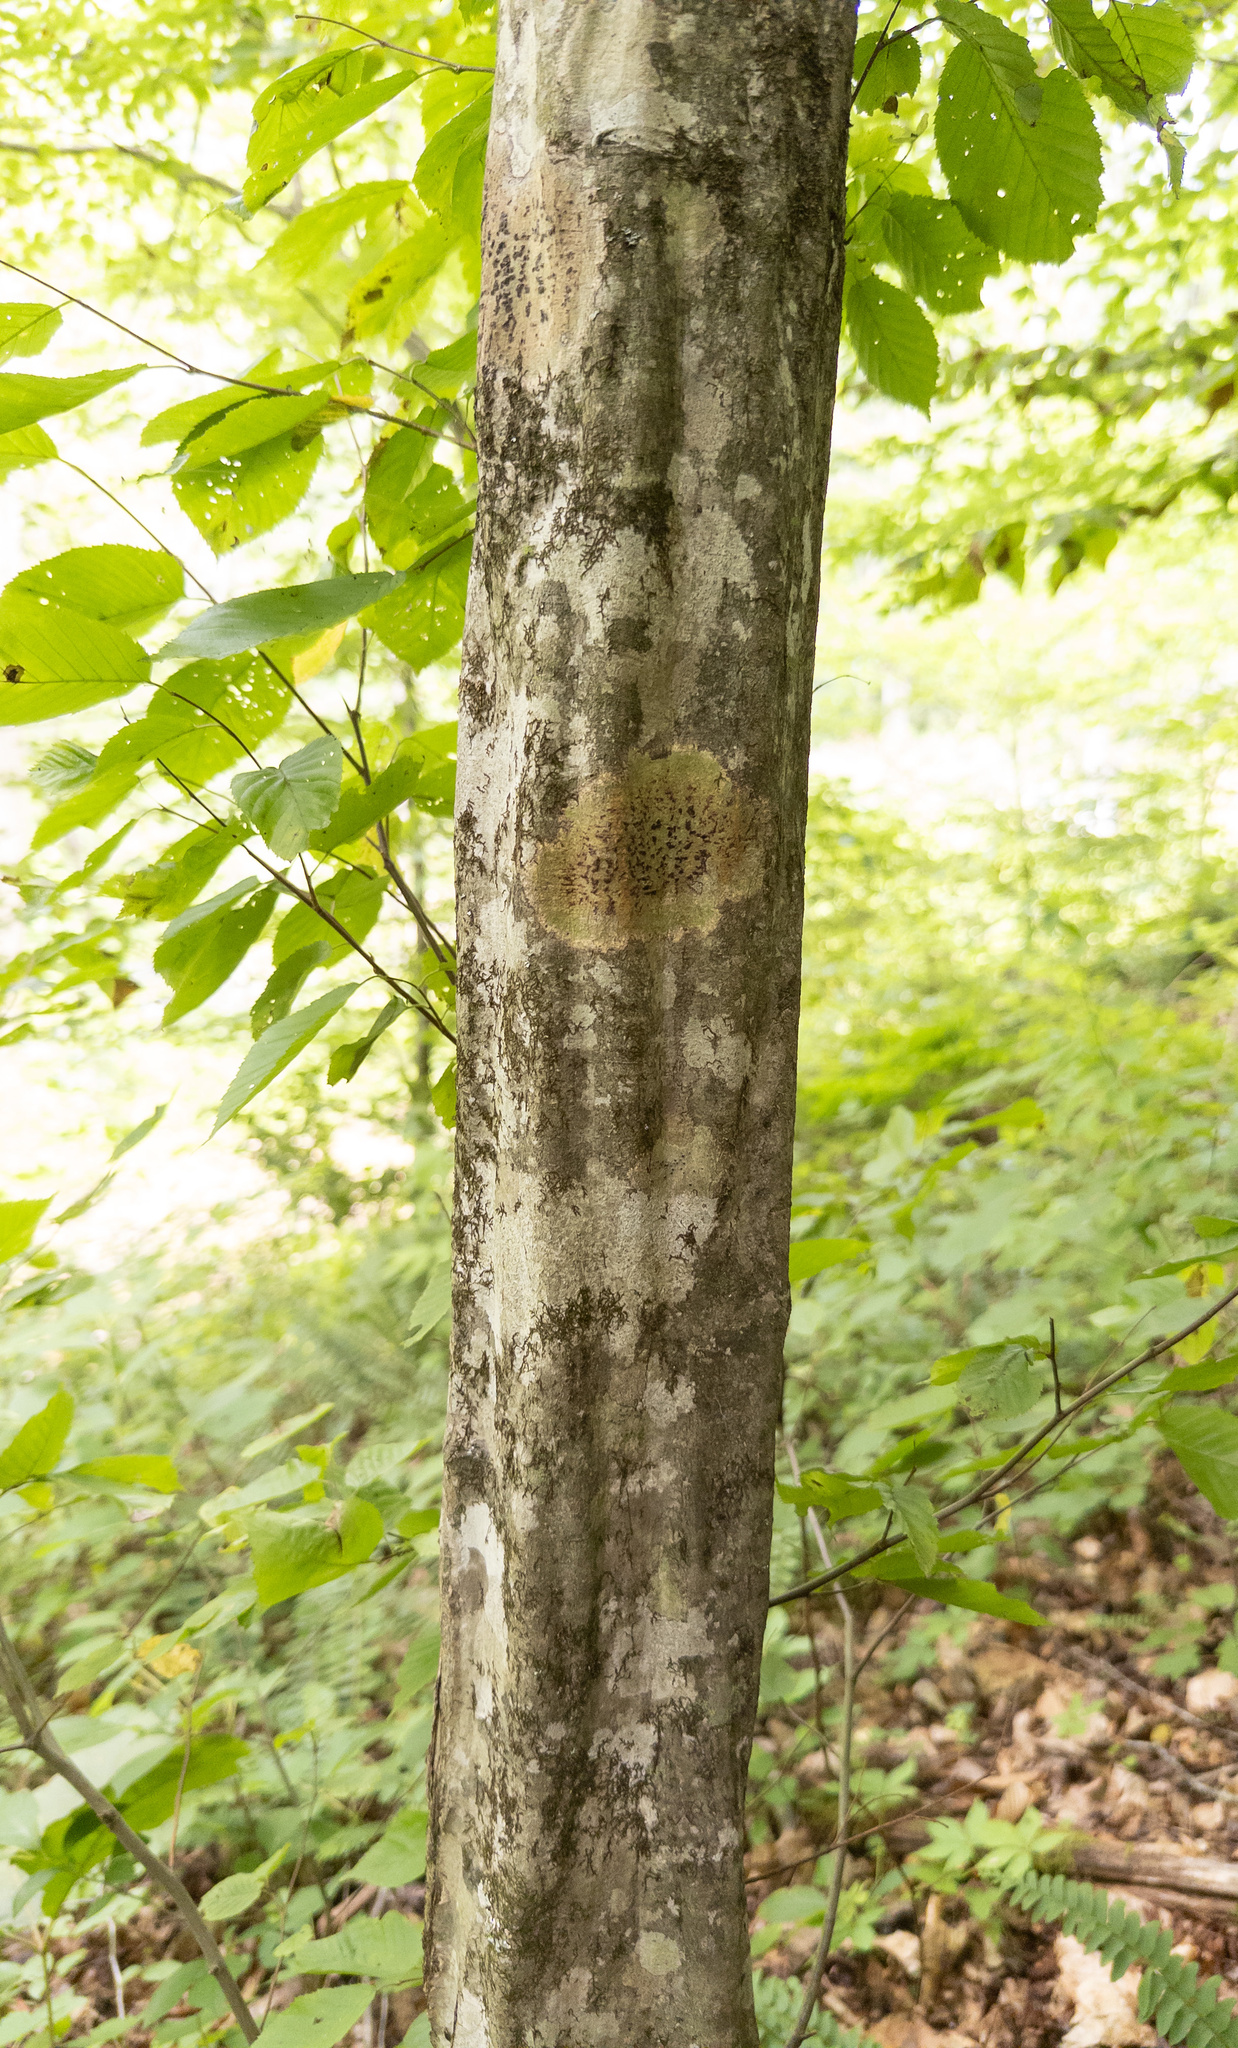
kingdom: Plantae
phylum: Tracheophyta
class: Magnoliopsida
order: Fagales
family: Betulaceae
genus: Carpinus
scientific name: Carpinus caroliniana
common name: American hornbeam
